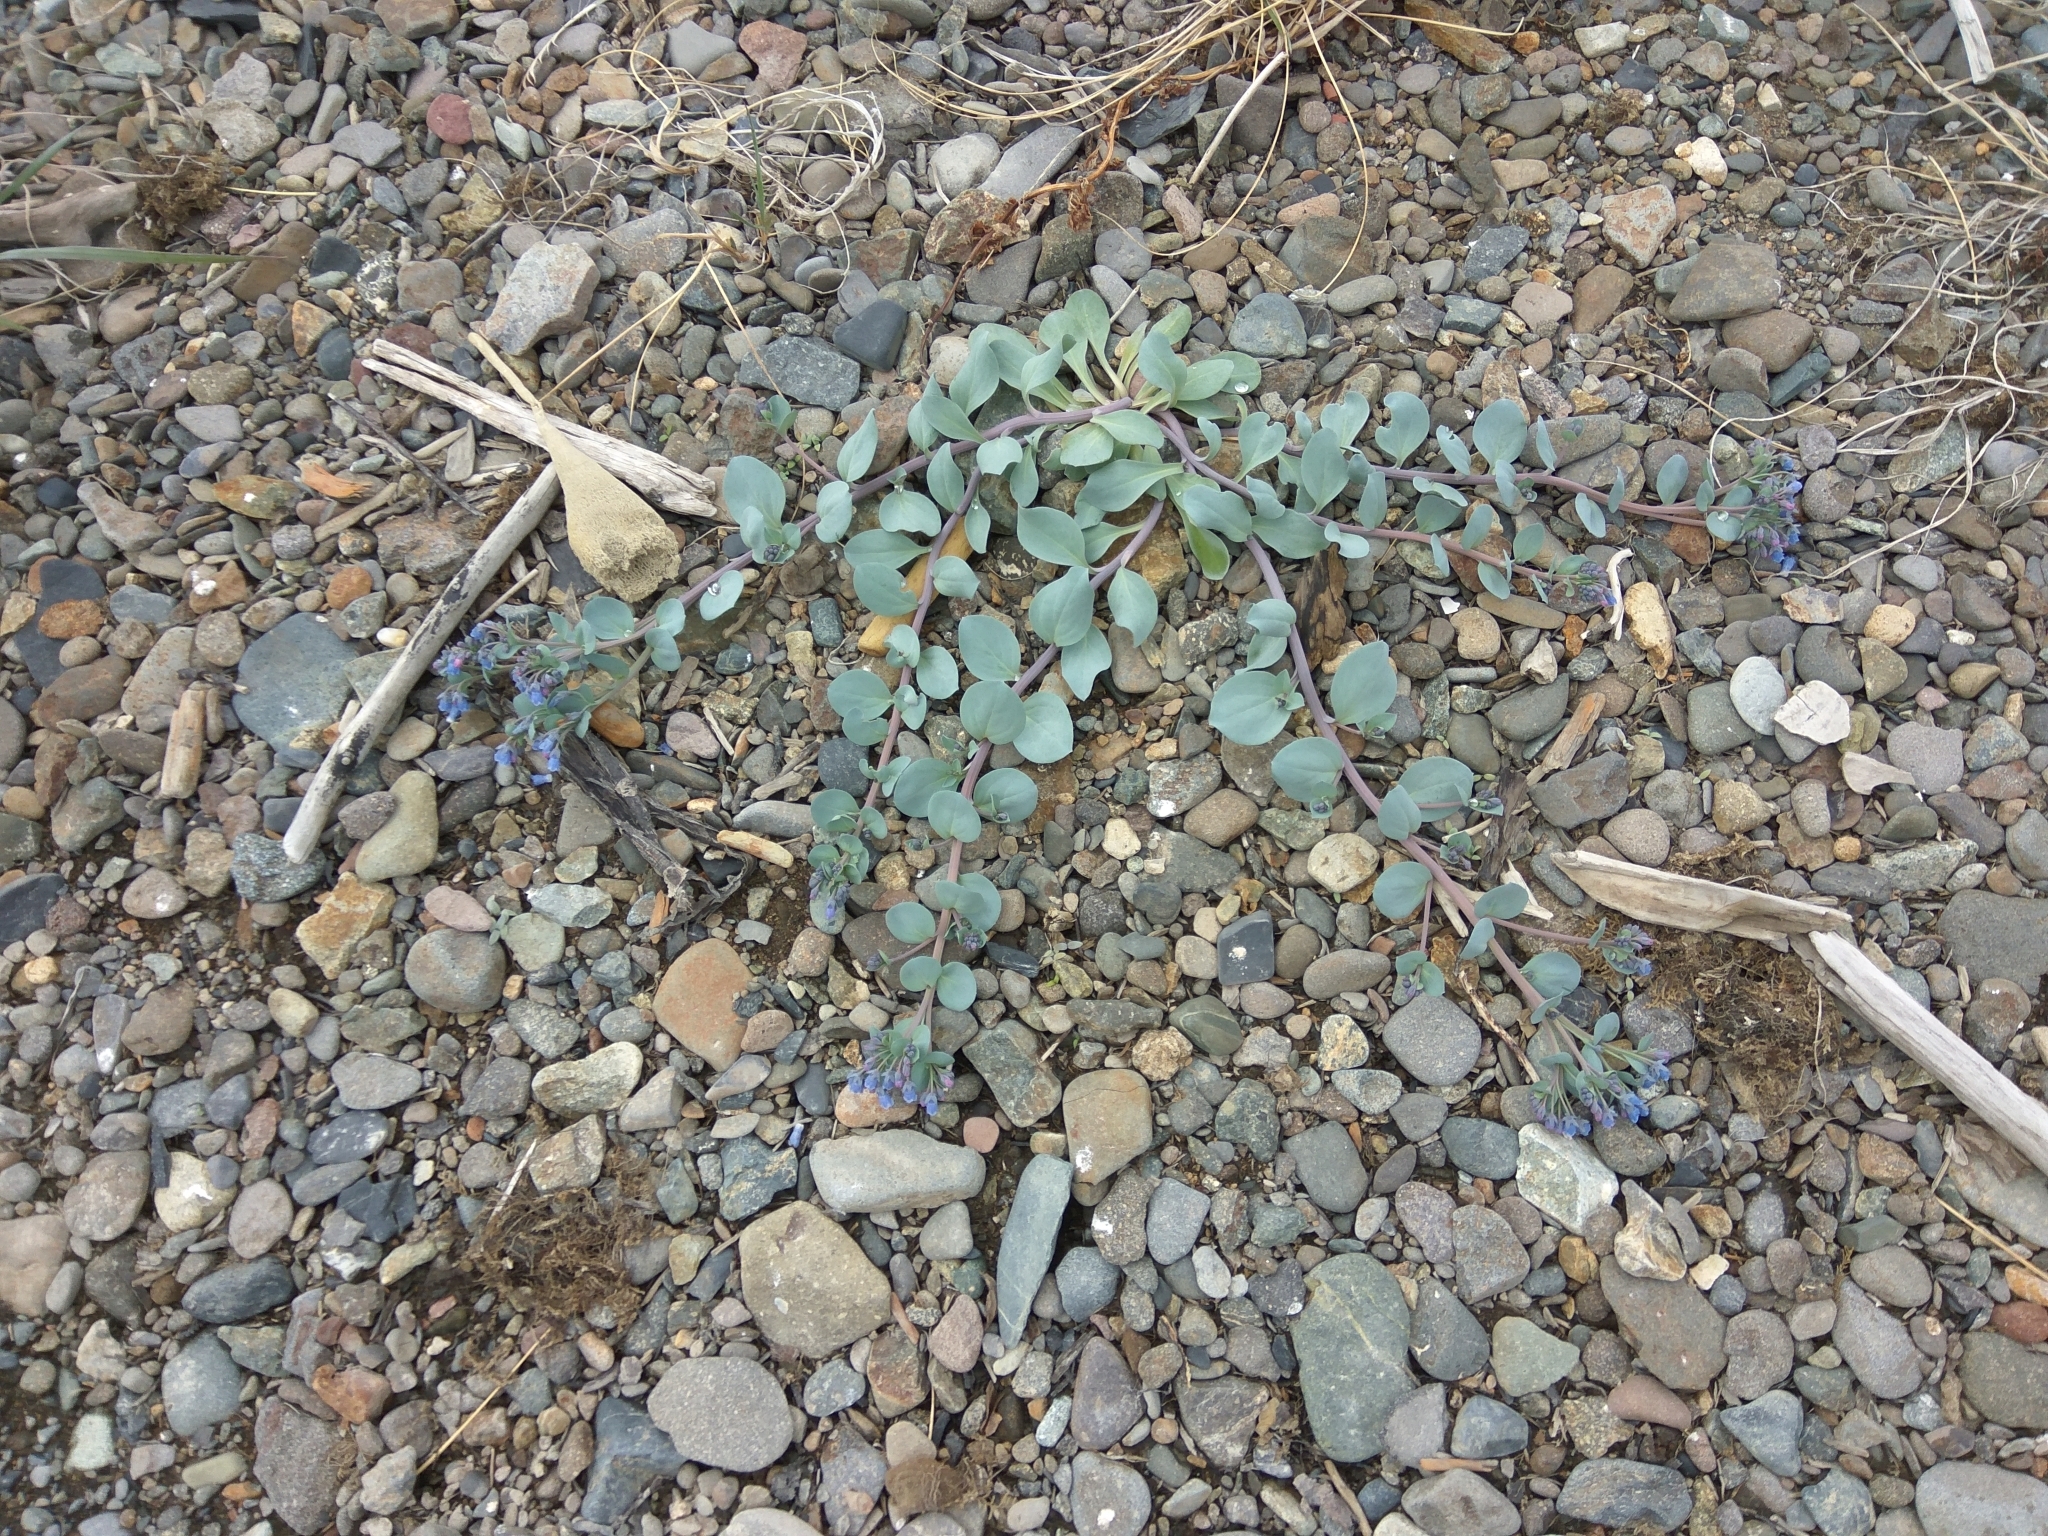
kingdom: Plantae
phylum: Tracheophyta
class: Magnoliopsida
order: Boraginales
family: Boraginaceae
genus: Mertensia
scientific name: Mertensia maritima
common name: Oysterplant
